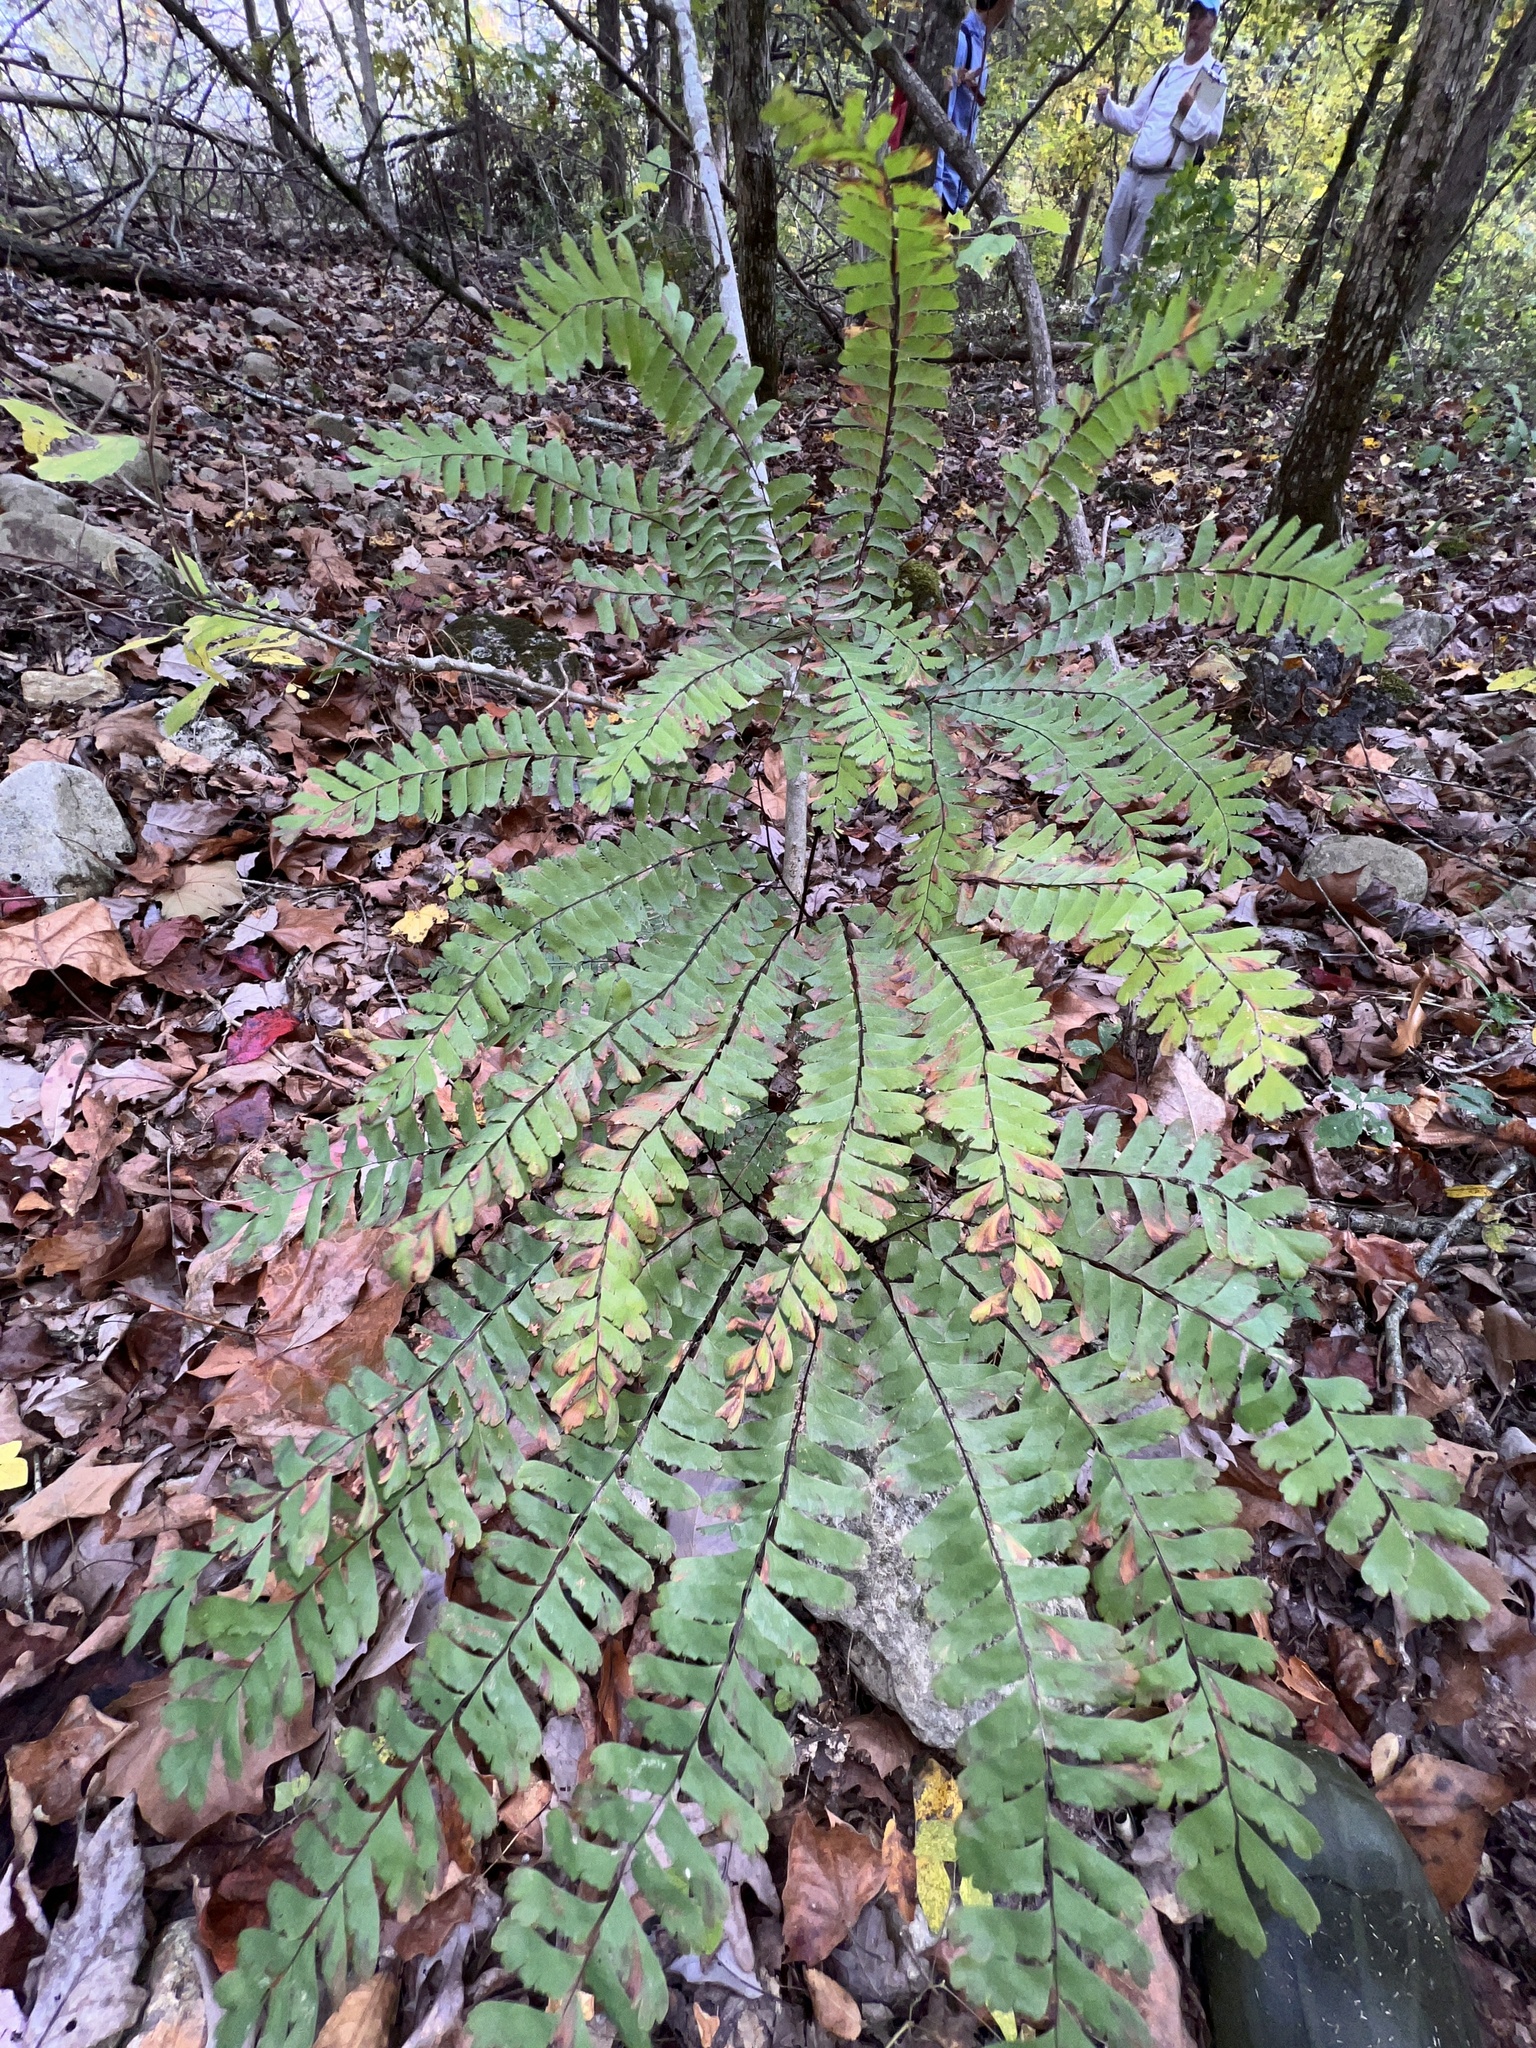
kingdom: Plantae
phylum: Tracheophyta
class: Polypodiopsida
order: Polypodiales
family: Pteridaceae
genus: Adiantum
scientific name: Adiantum pedatum
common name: Five-finger fern
